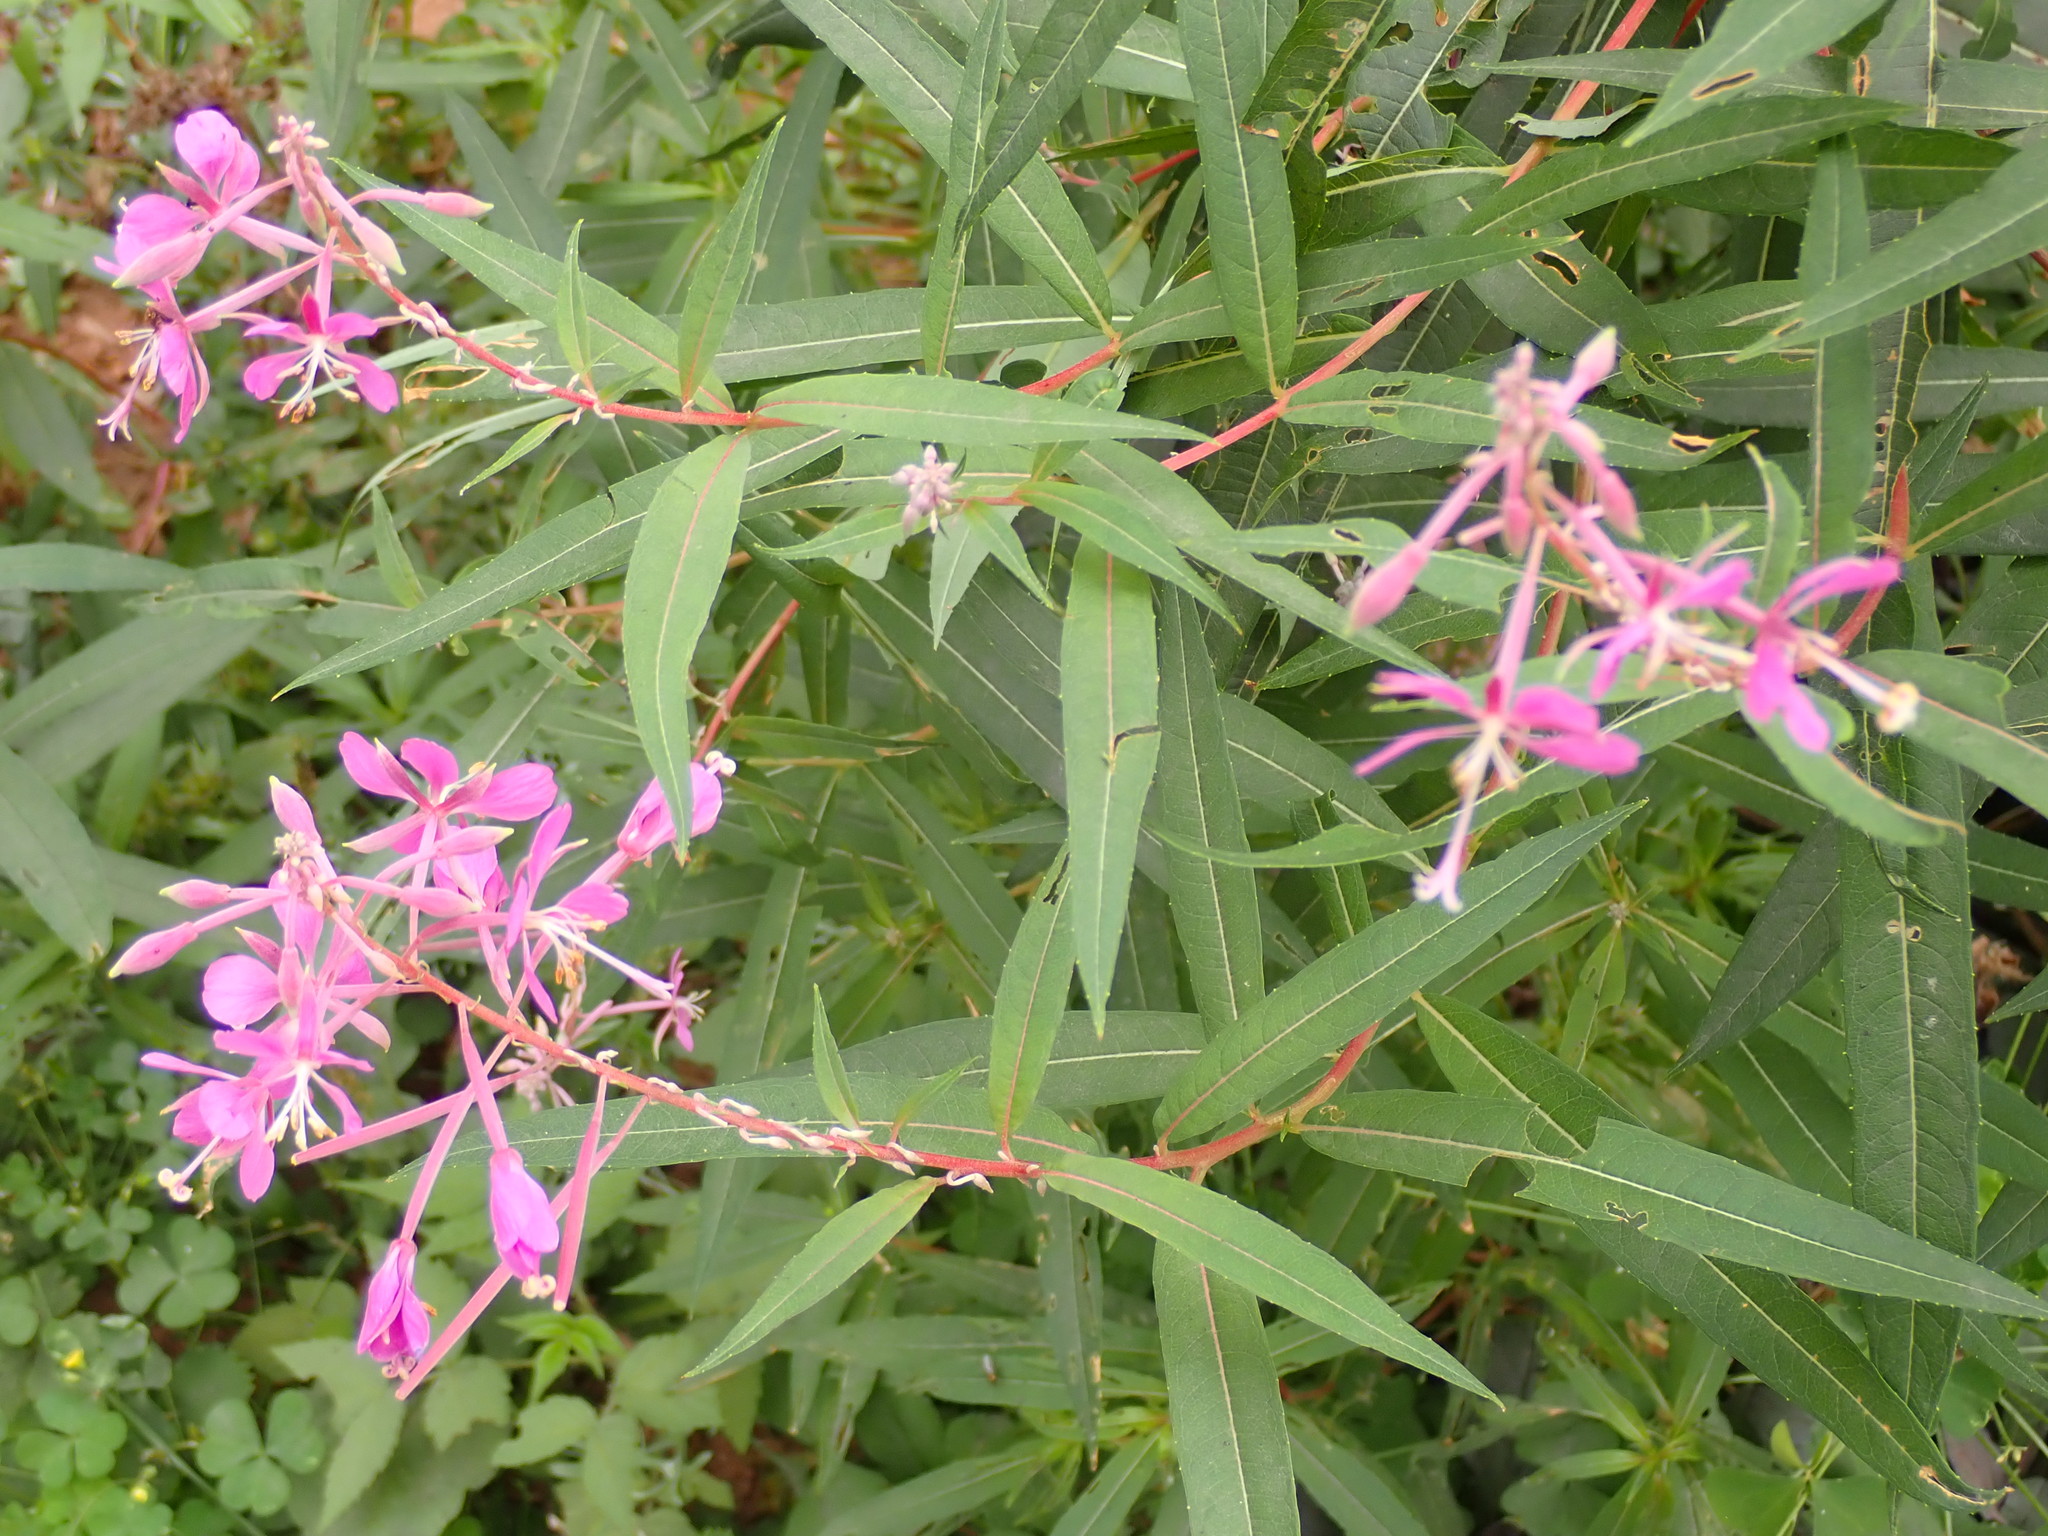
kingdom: Plantae
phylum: Tracheophyta
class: Magnoliopsida
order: Myrtales
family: Onagraceae
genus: Chamaenerion
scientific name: Chamaenerion angustifolium
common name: Fireweed
